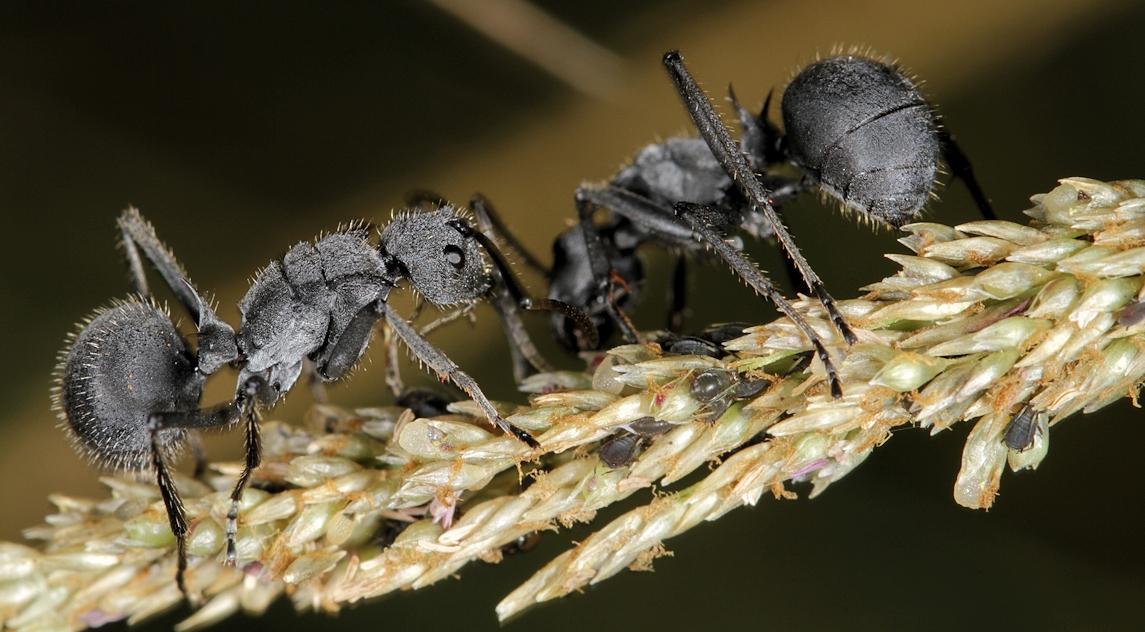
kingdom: Animalia
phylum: Arthropoda
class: Insecta
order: Hymenoptera
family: Formicidae
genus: Polyrhachis
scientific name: Polyrhachis schistacea
